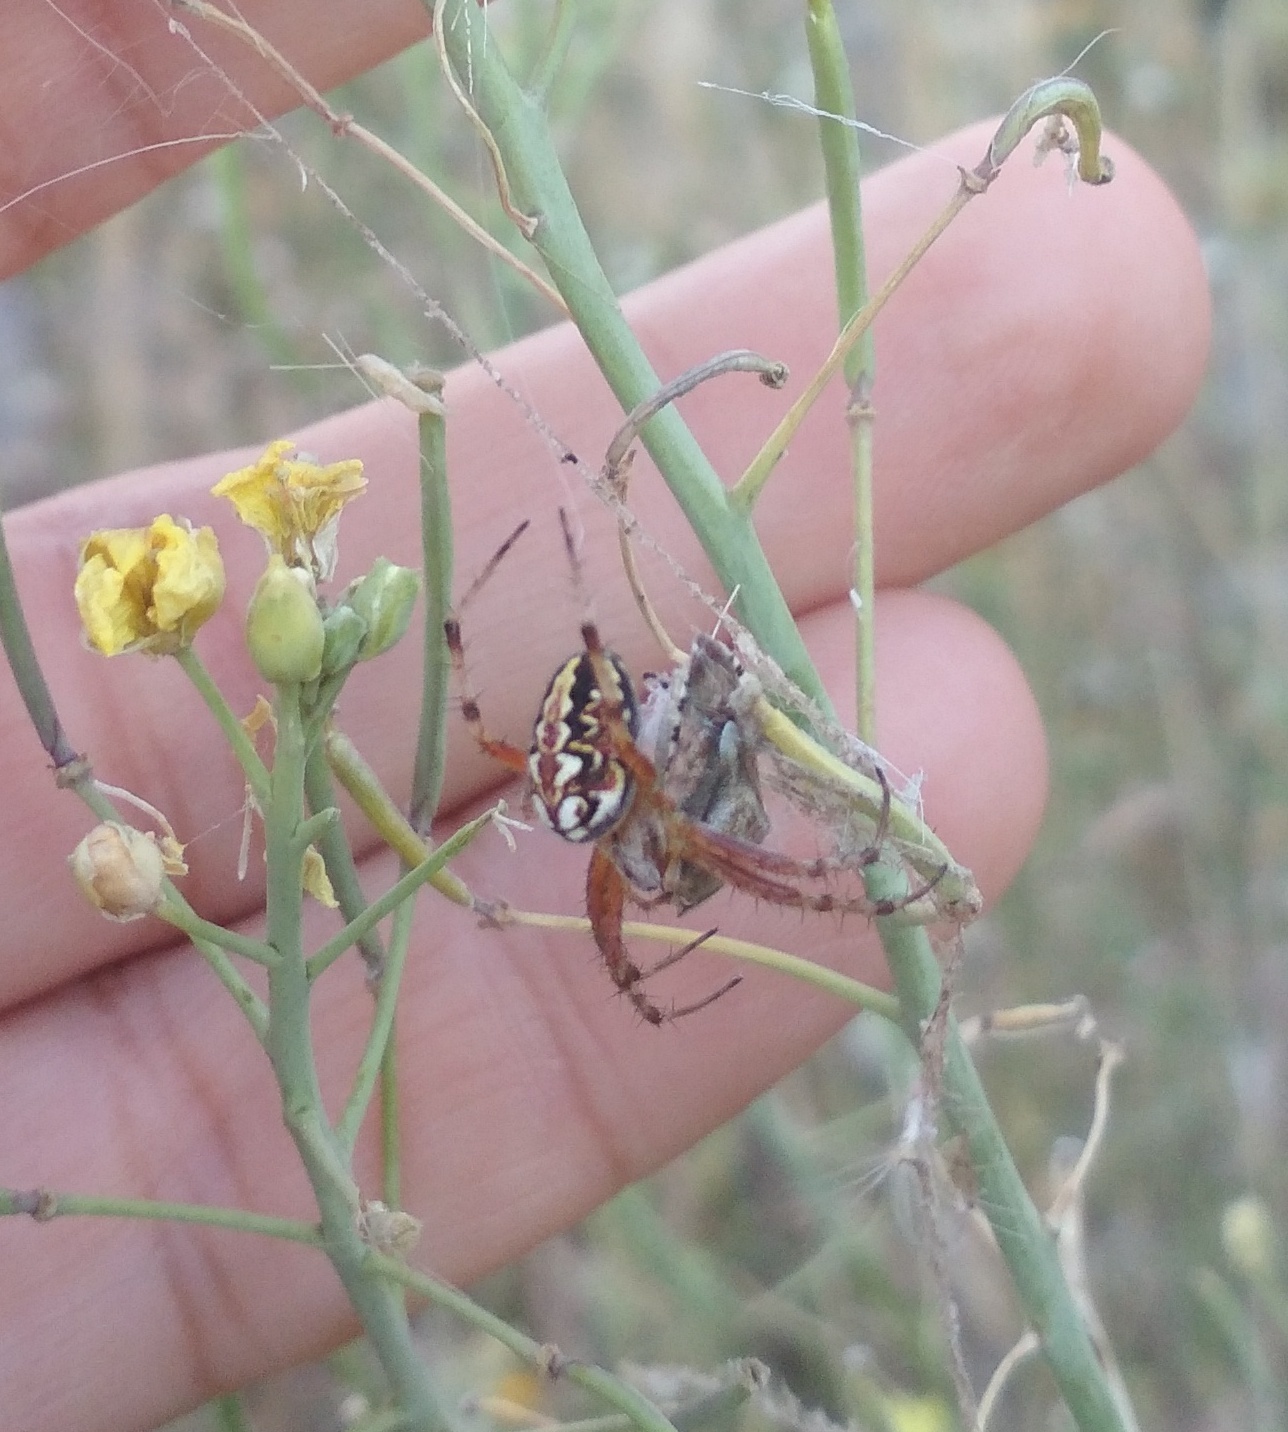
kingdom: Animalia
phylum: Arthropoda
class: Arachnida
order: Araneae
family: Araneidae
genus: Neoscona
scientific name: Neoscona adianta
